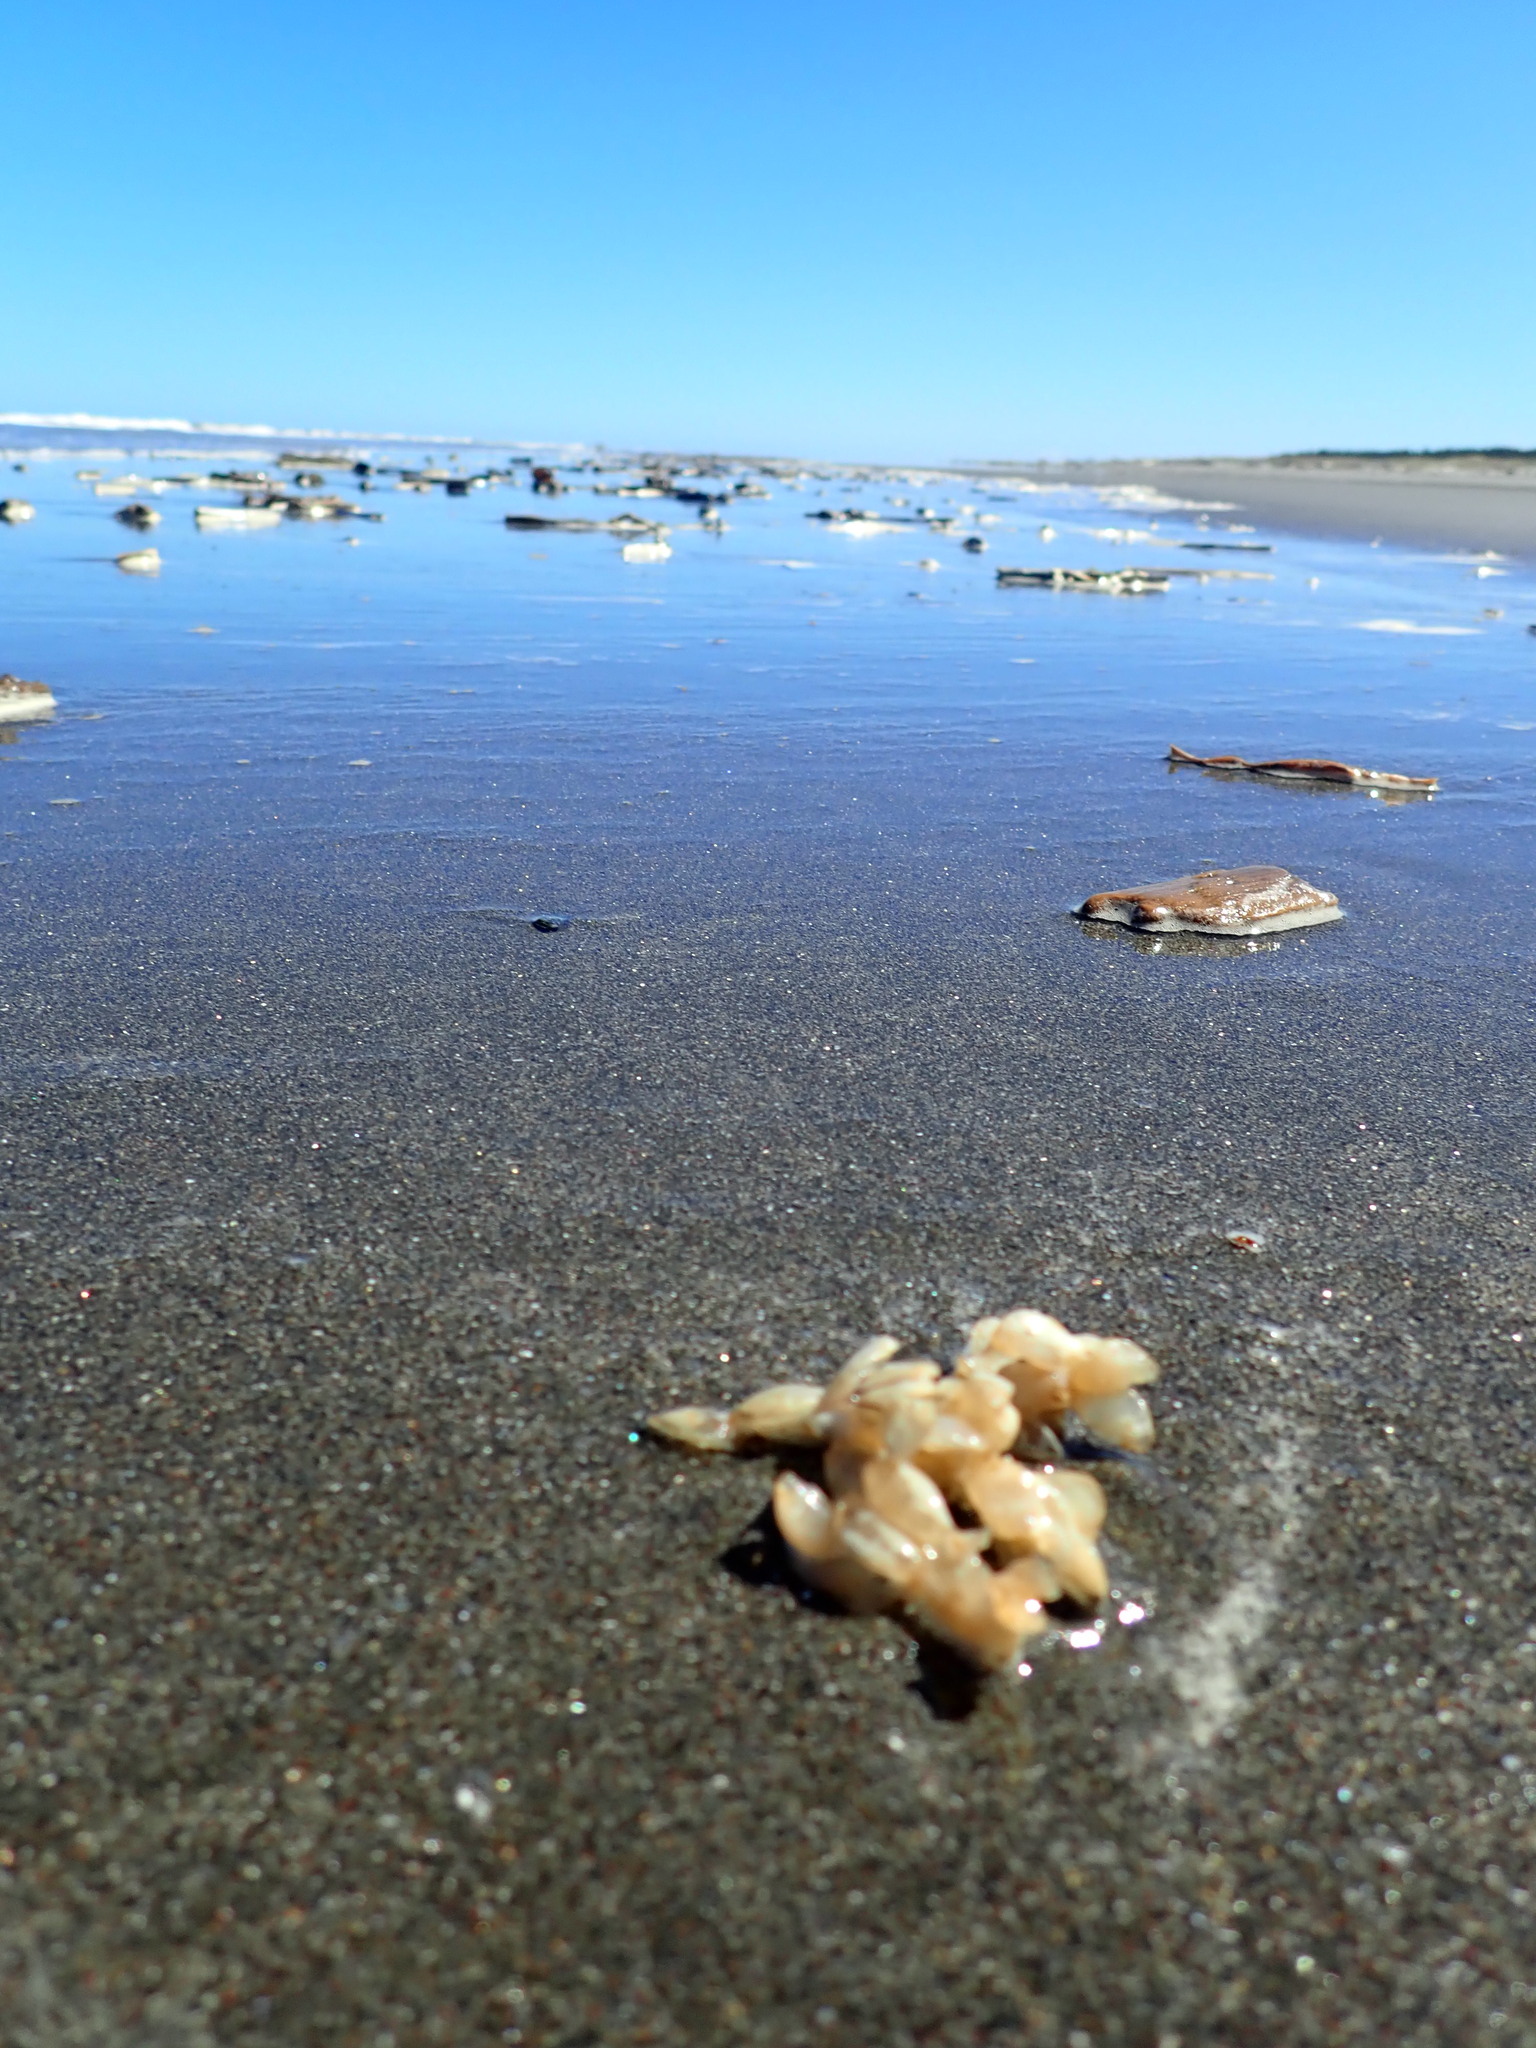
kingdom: Animalia
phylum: Mollusca
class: Gastropoda
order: Neogastropoda
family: Austrosiphonidae
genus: Penion
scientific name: Penion sulcatus
